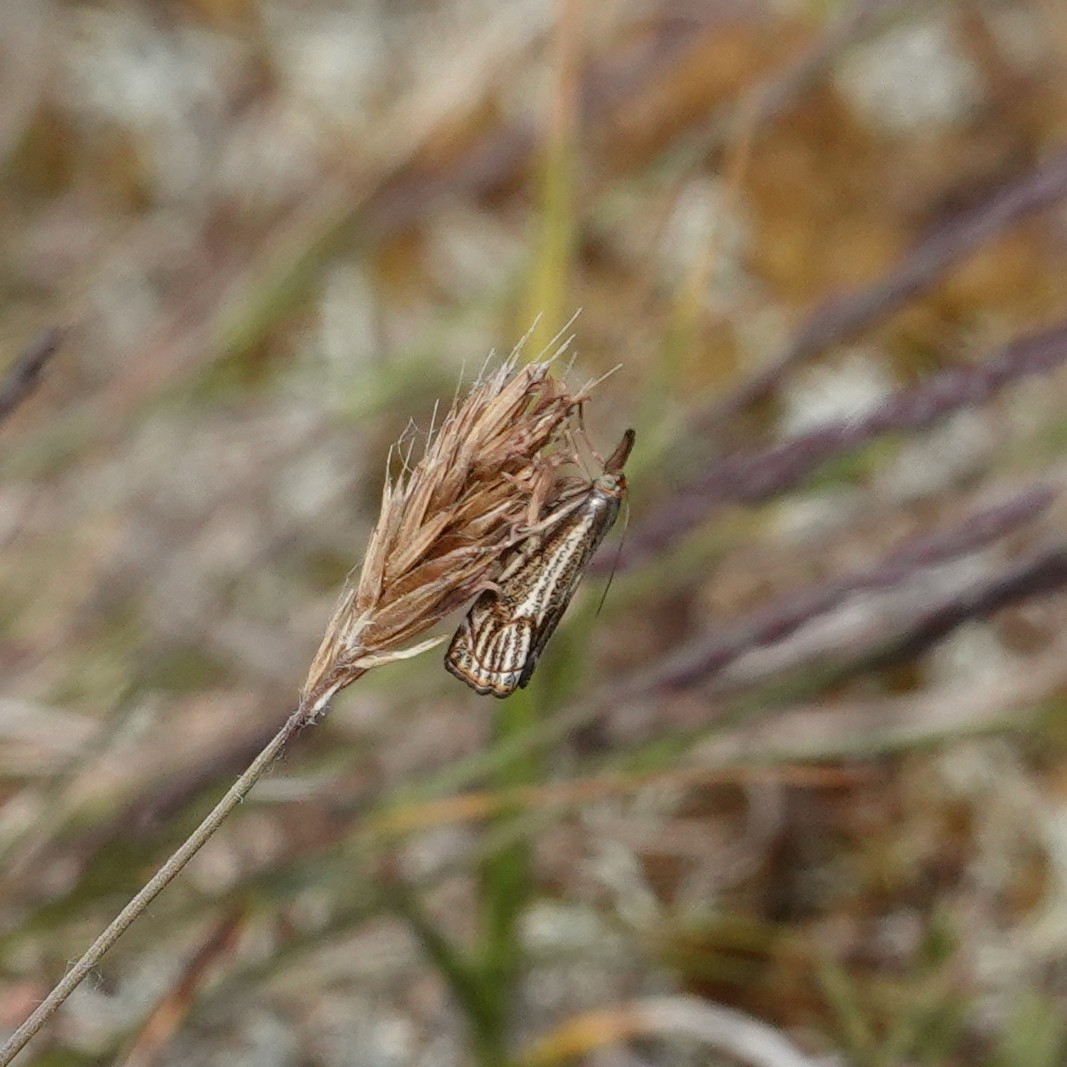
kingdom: Animalia
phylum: Arthropoda
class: Insecta
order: Lepidoptera
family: Crambidae
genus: Thisanotia
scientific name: Thisanotia chrysonuchella
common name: Powdered grass-veneer
